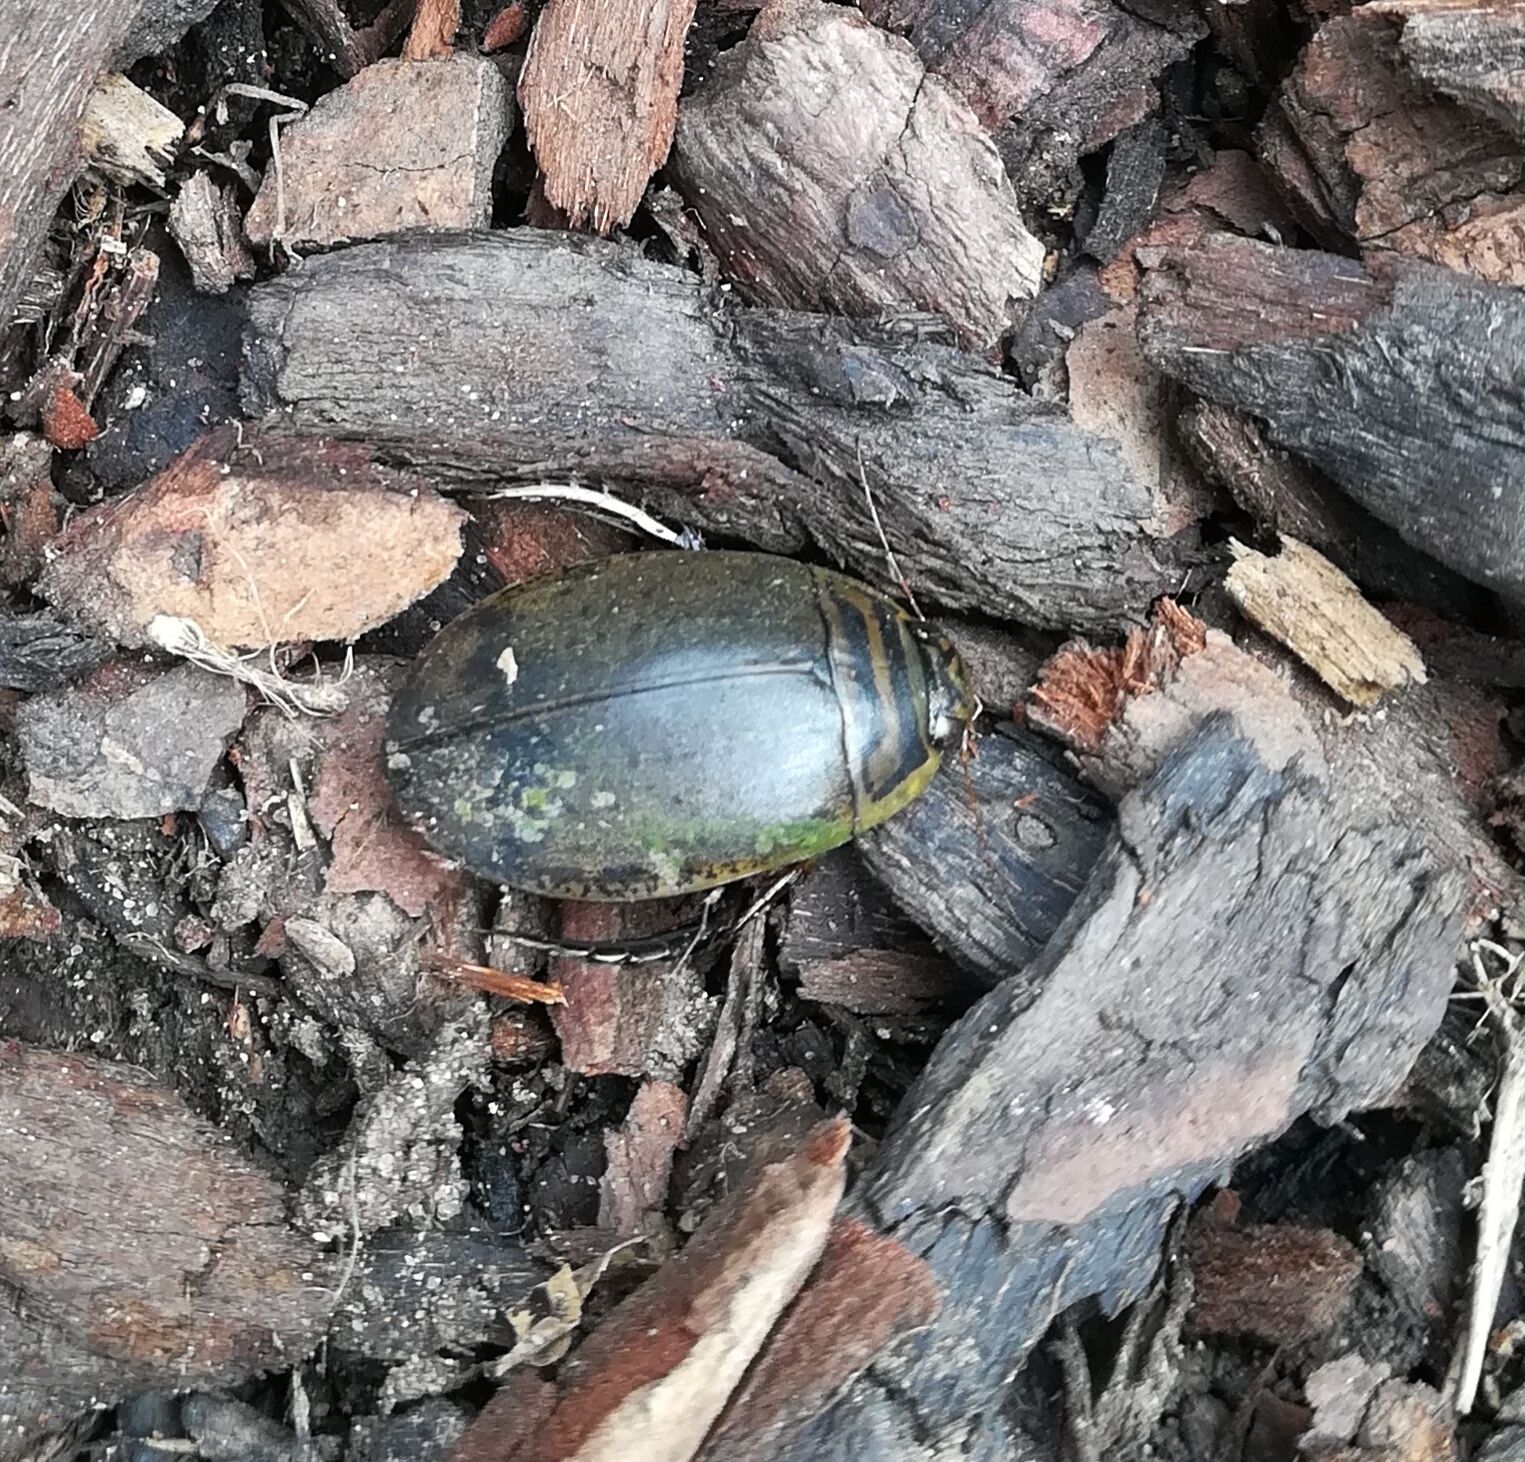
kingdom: Animalia
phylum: Arthropoda
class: Insecta
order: Coleoptera
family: Dytiscidae
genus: Acilius
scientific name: Acilius sulcatus
